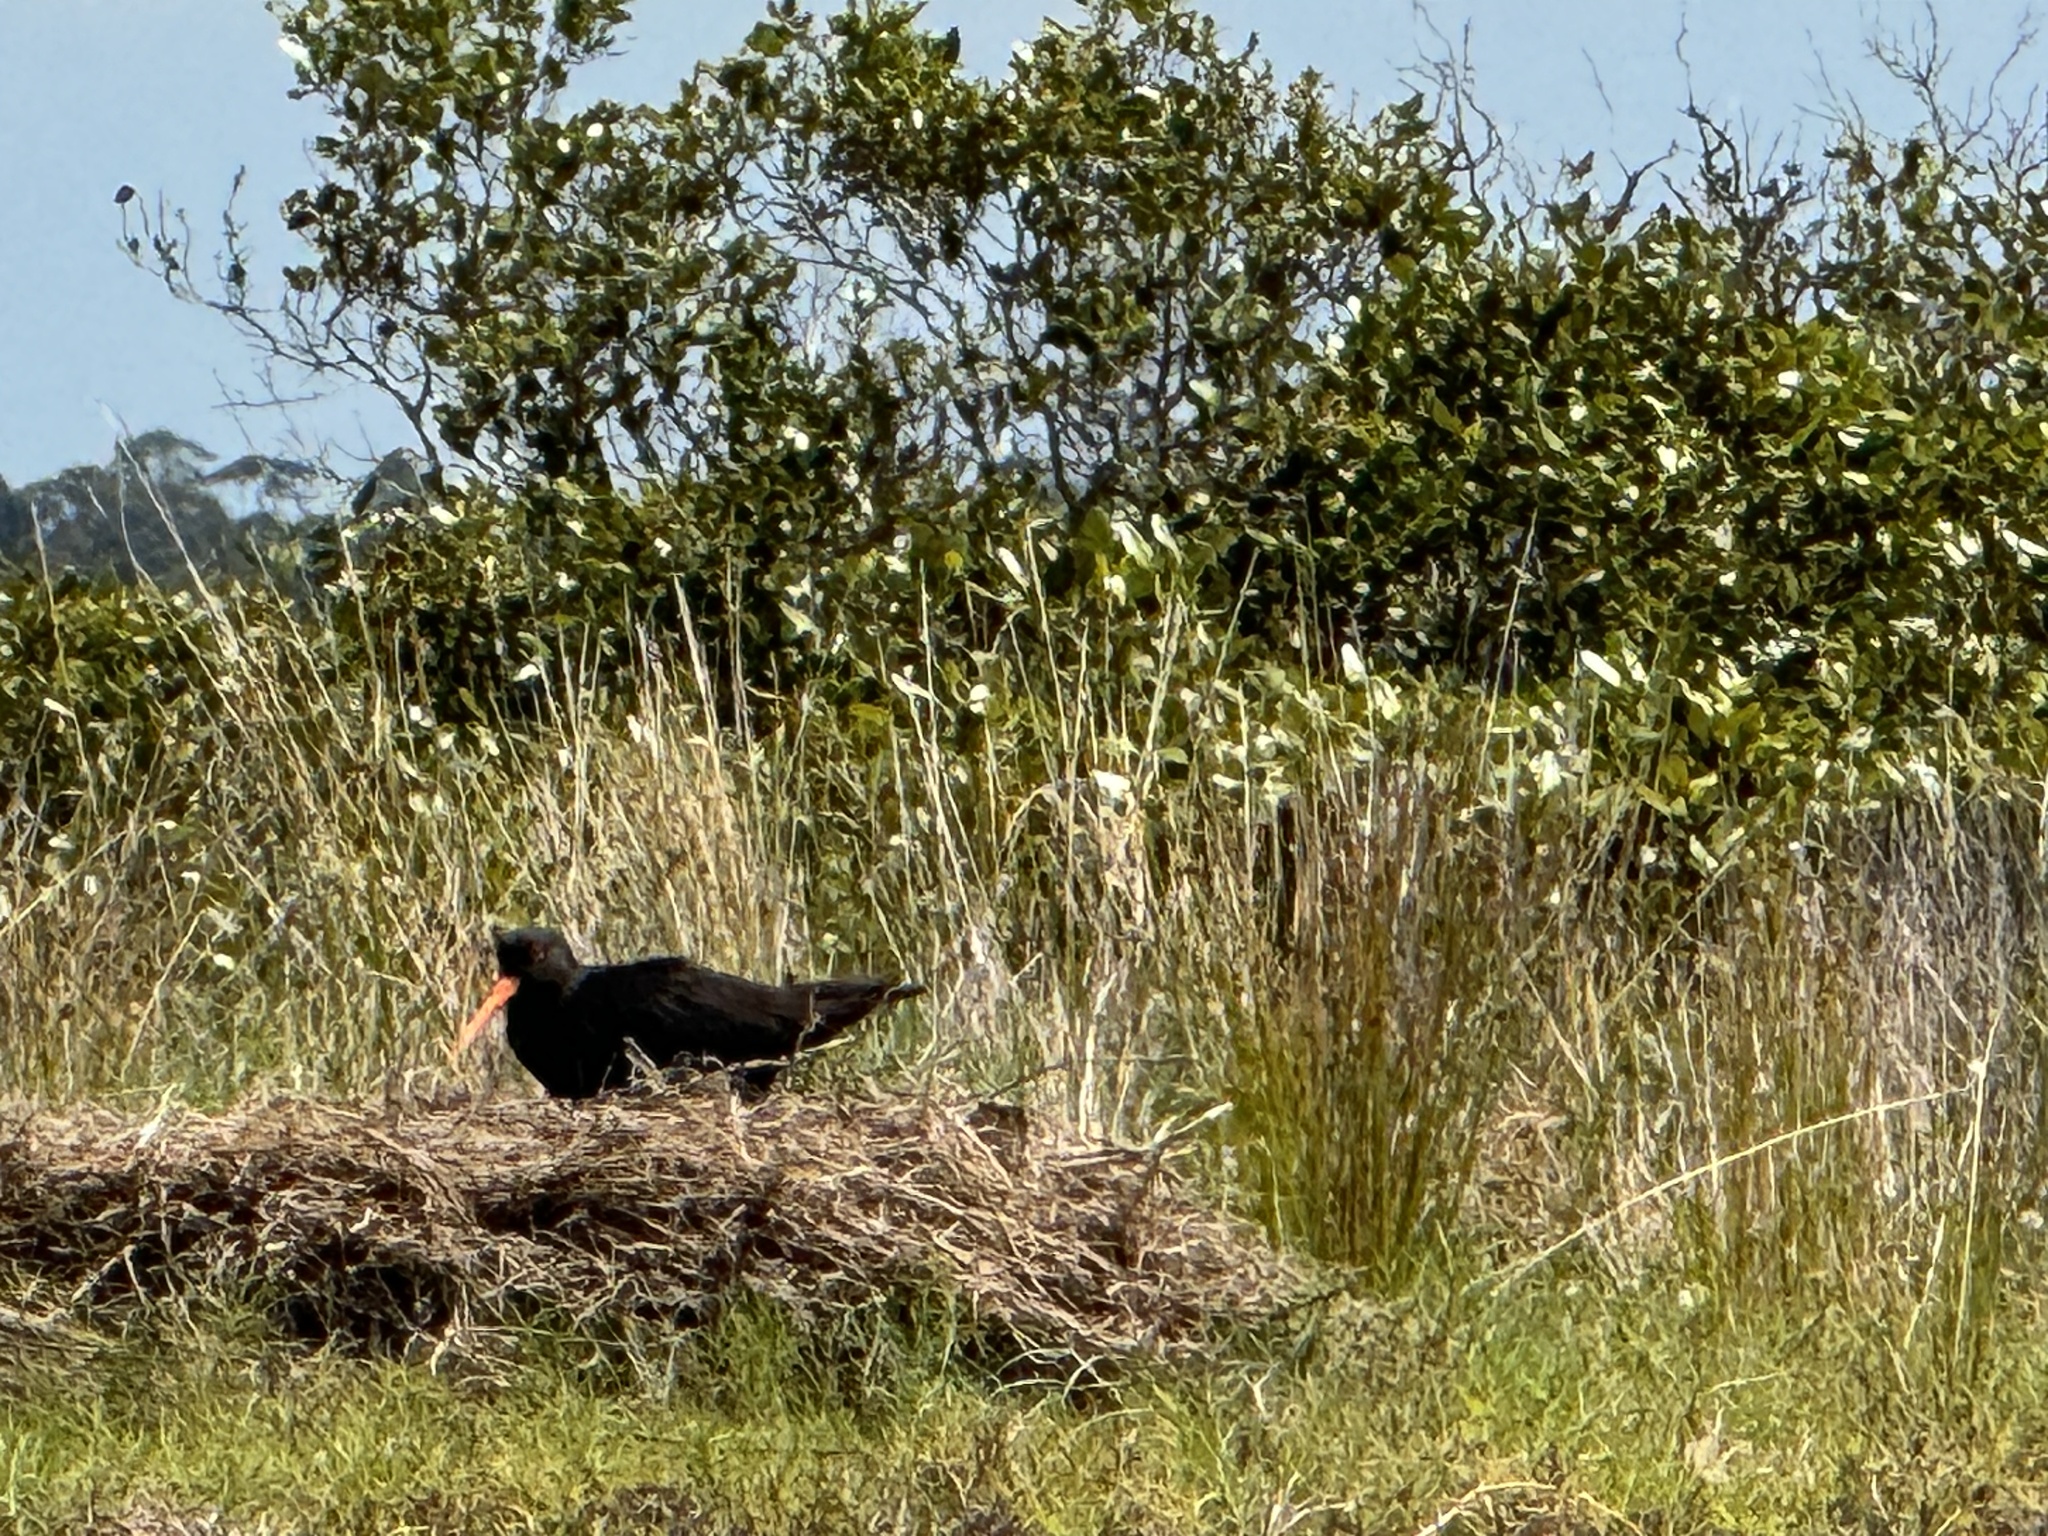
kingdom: Animalia
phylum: Chordata
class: Aves
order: Charadriiformes
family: Haematopodidae
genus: Haematopus
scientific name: Haematopus unicolor
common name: Variable oystercatcher
